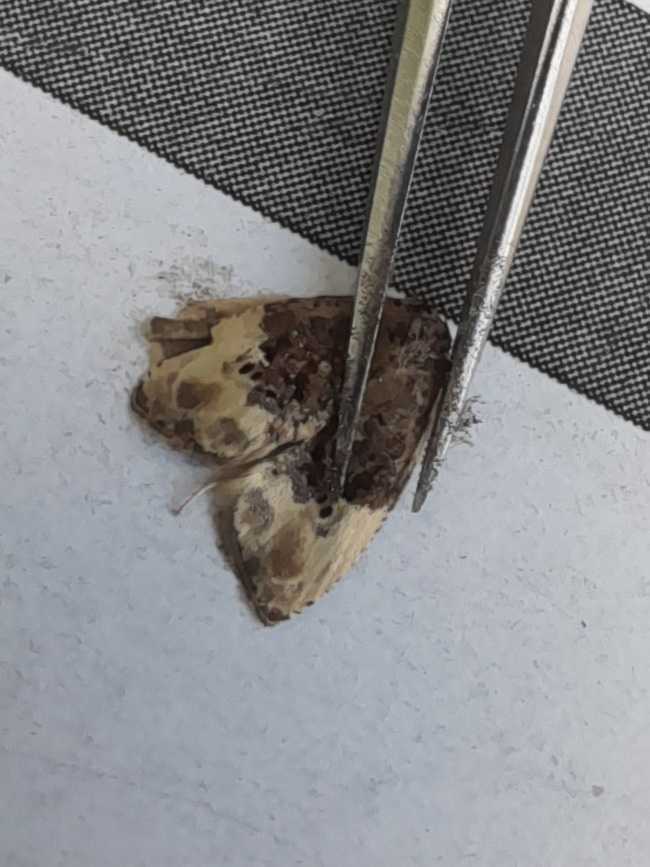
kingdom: Animalia
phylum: Arthropoda
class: Insecta
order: Lepidoptera
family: Tortricidae
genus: Hedya
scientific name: Hedya nubiferana
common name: Marbled orchard tortrix
